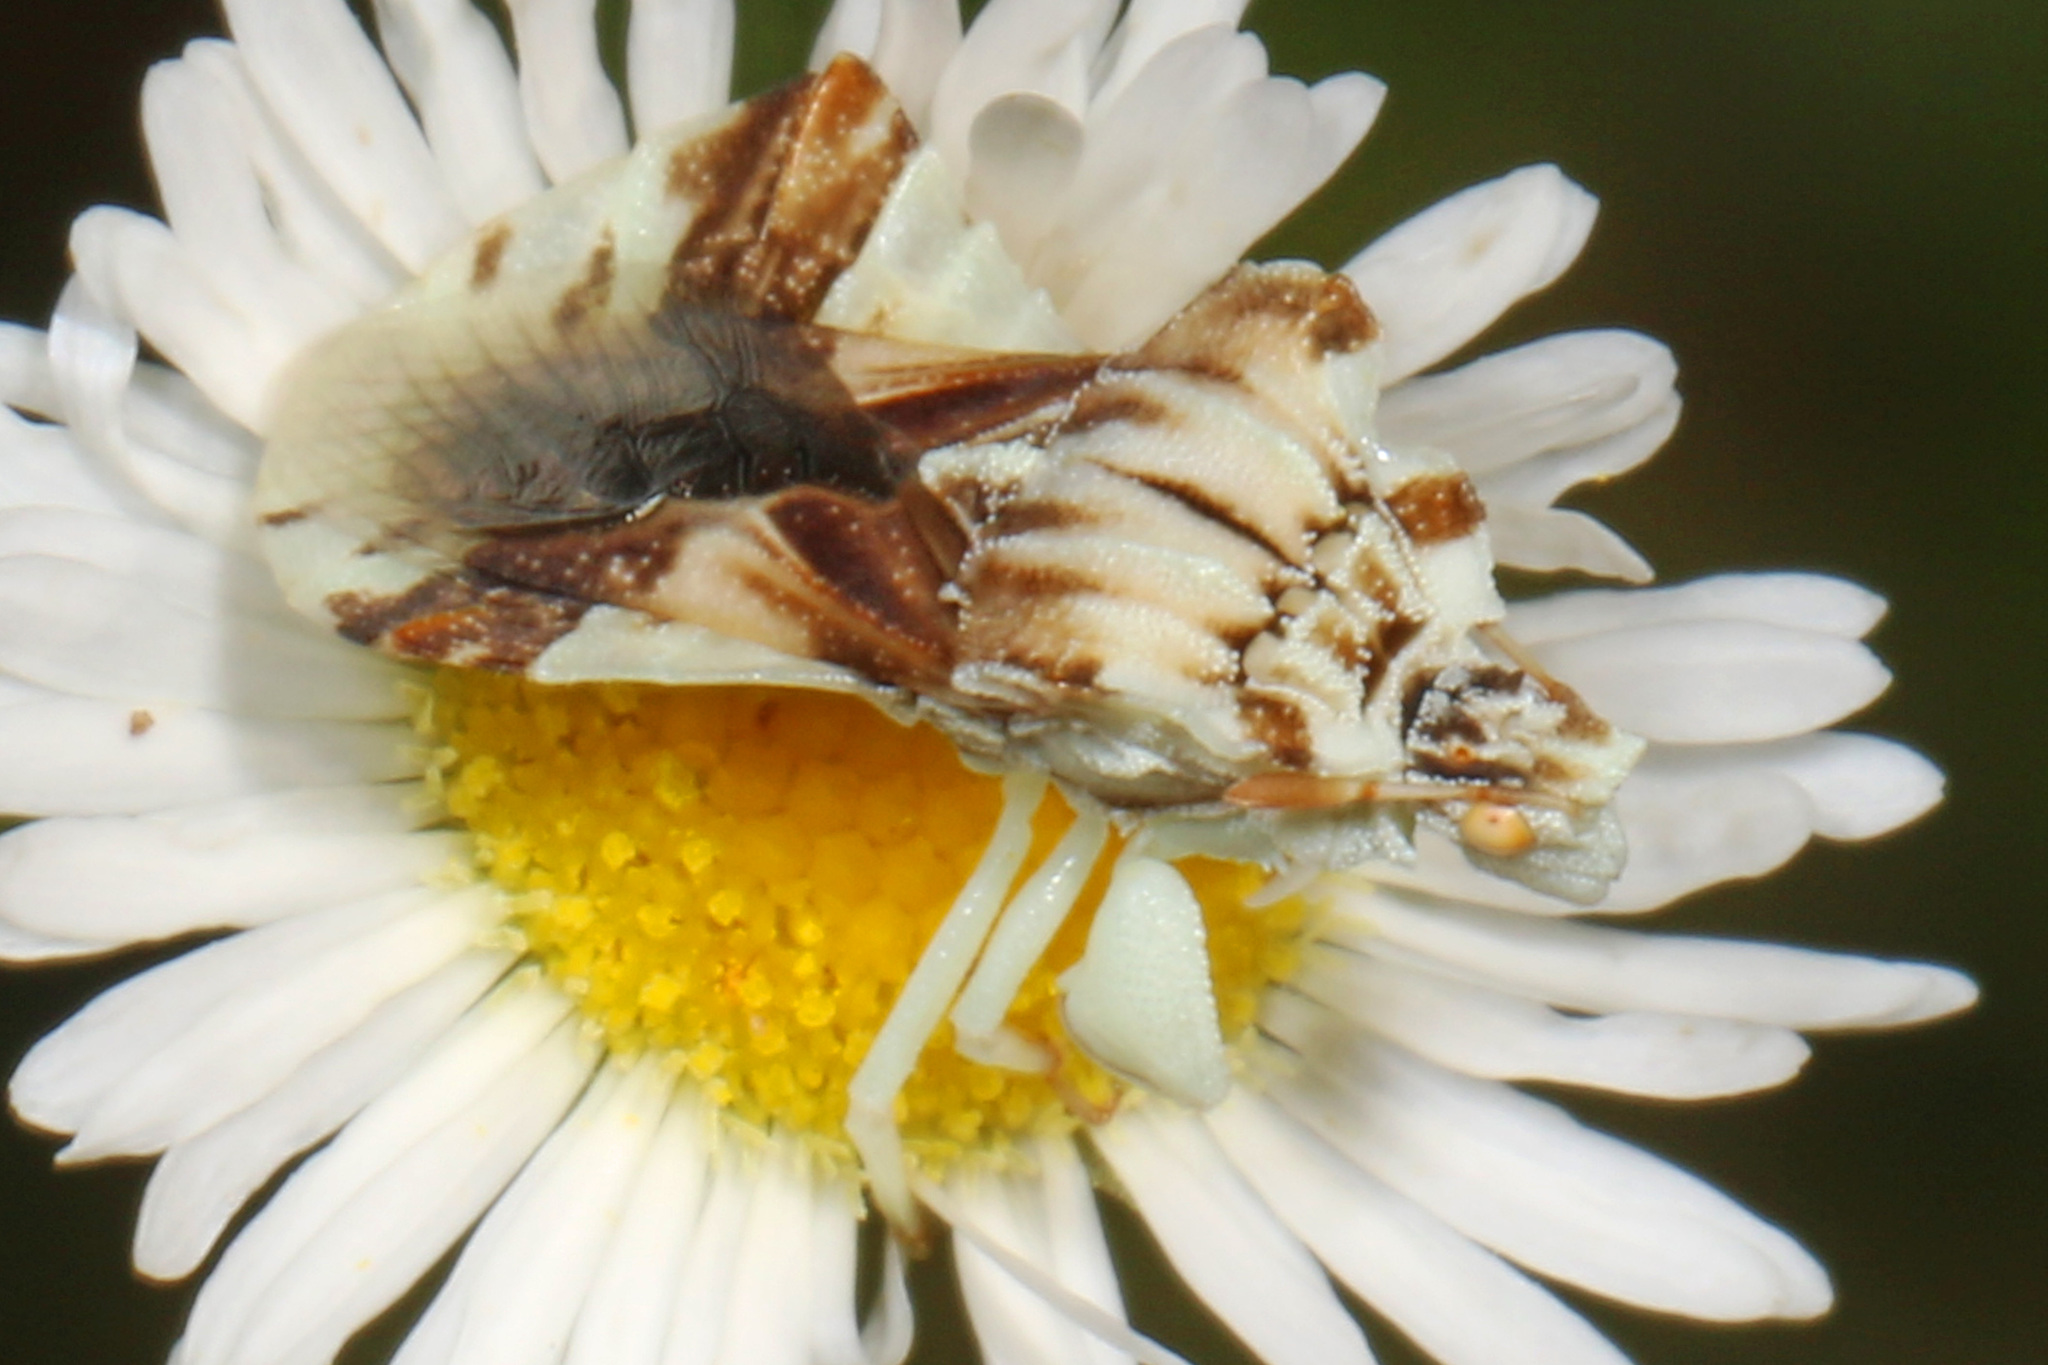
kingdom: Animalia
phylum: Arthropoda
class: Insecta
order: Hemiptera
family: Reduviidae
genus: Phymata
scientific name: Phymata fasciata
